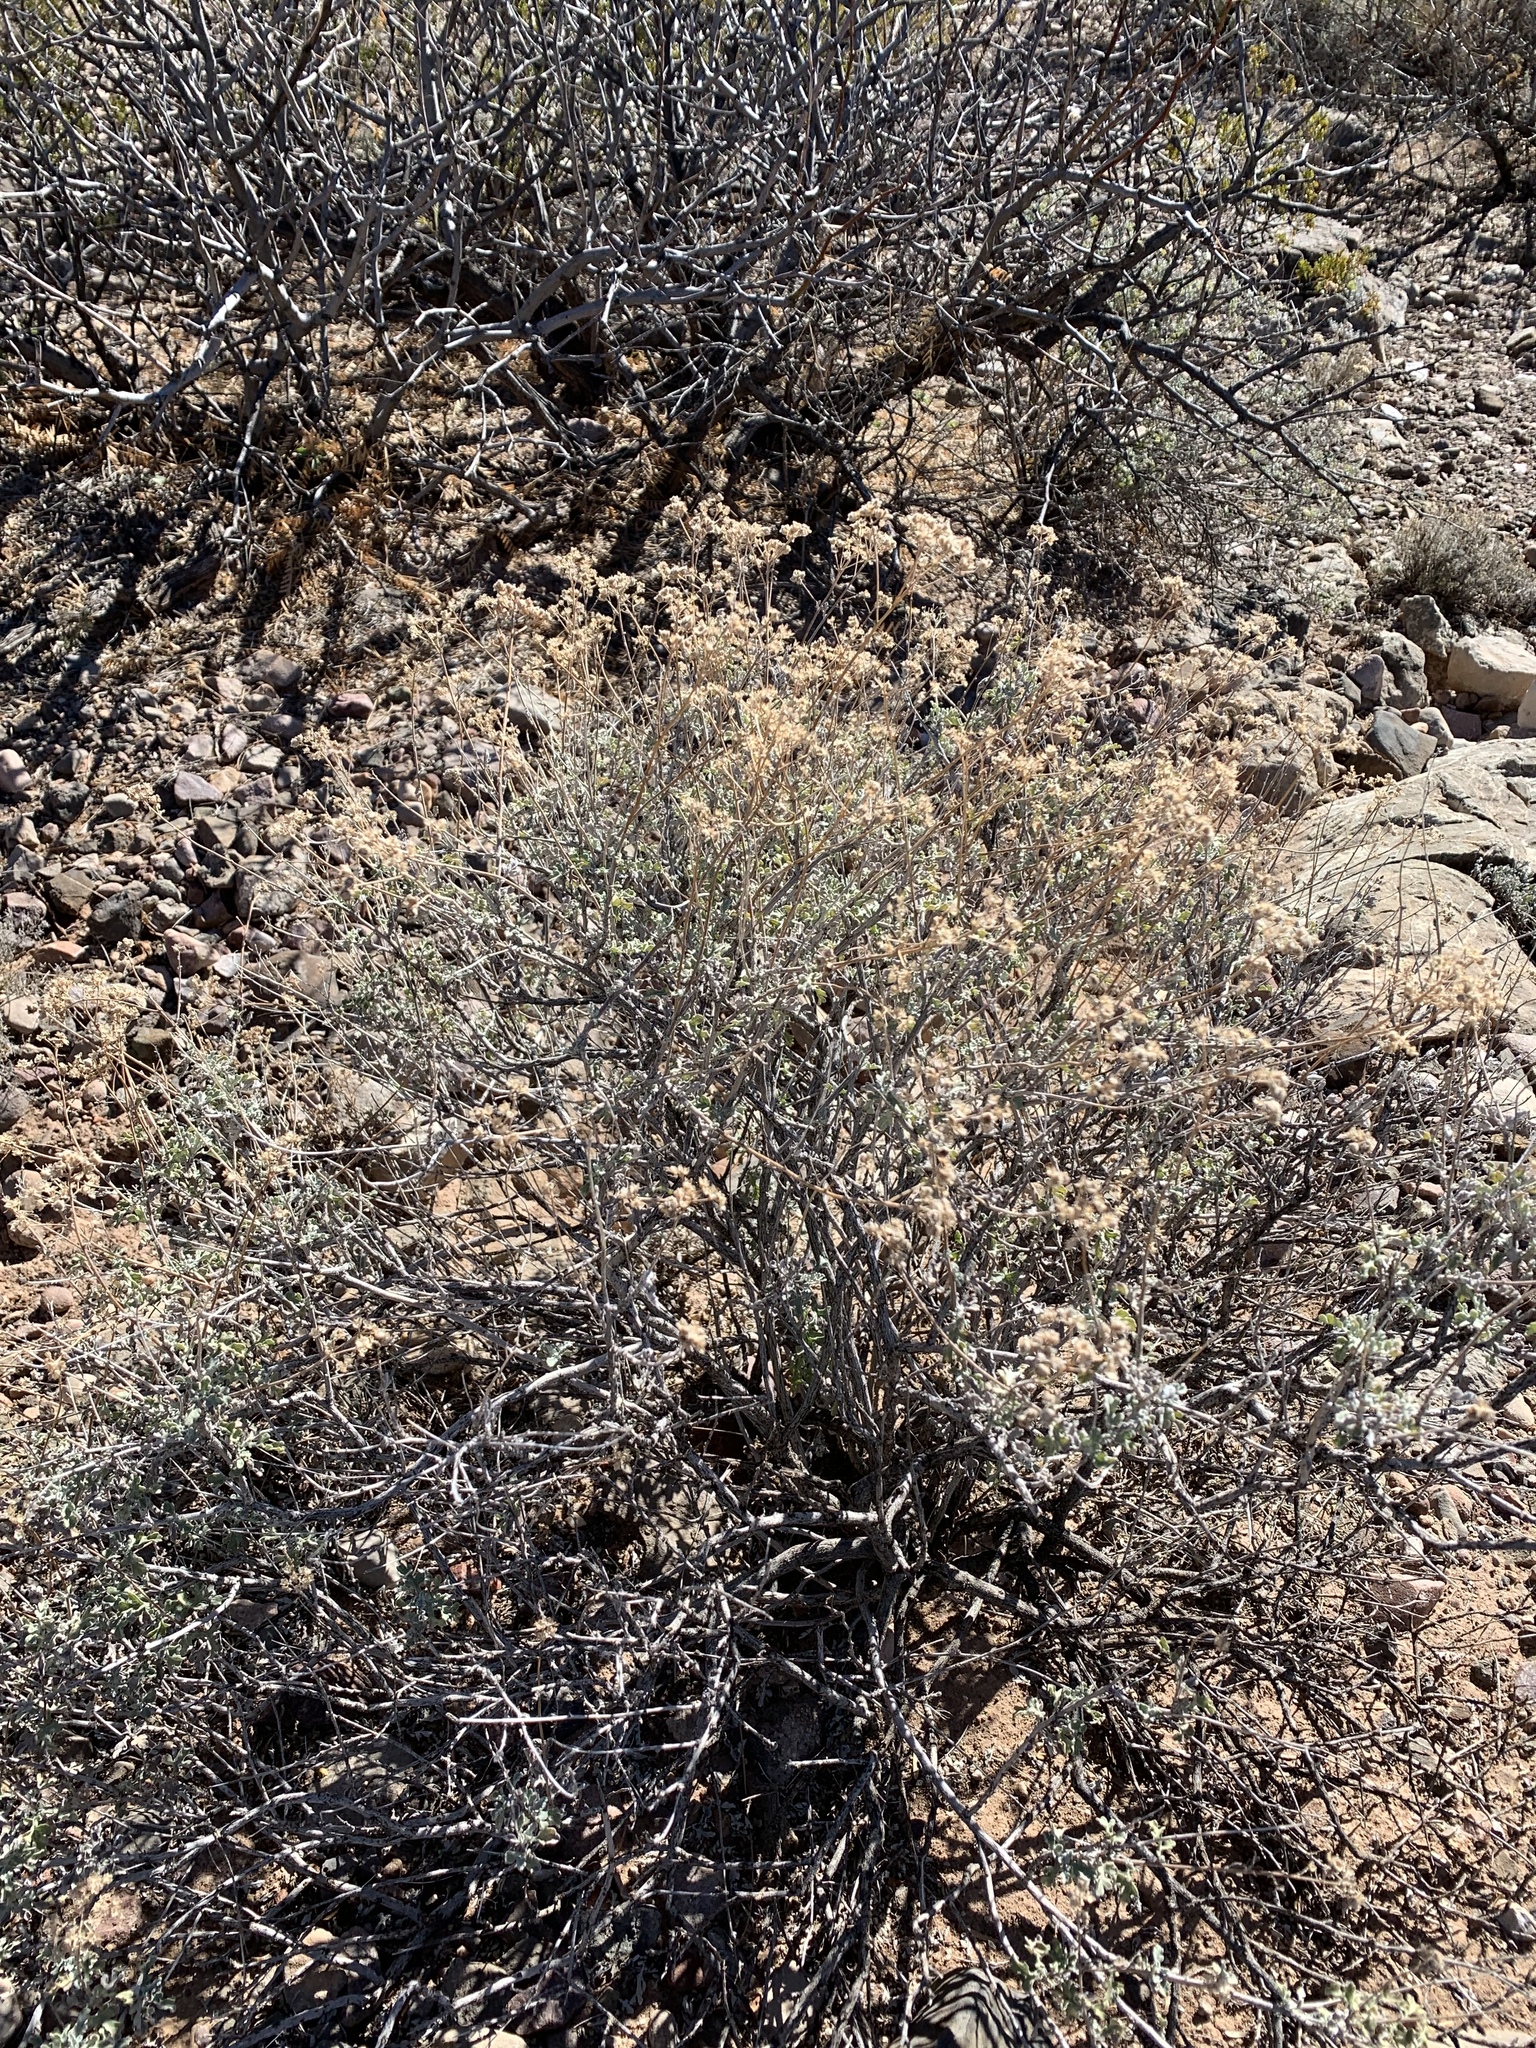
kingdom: Plantae
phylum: Tracheophyta
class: Magnoliopsida
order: Asterales
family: Asteraceae
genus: Parthenium
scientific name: Parthenium incanum
